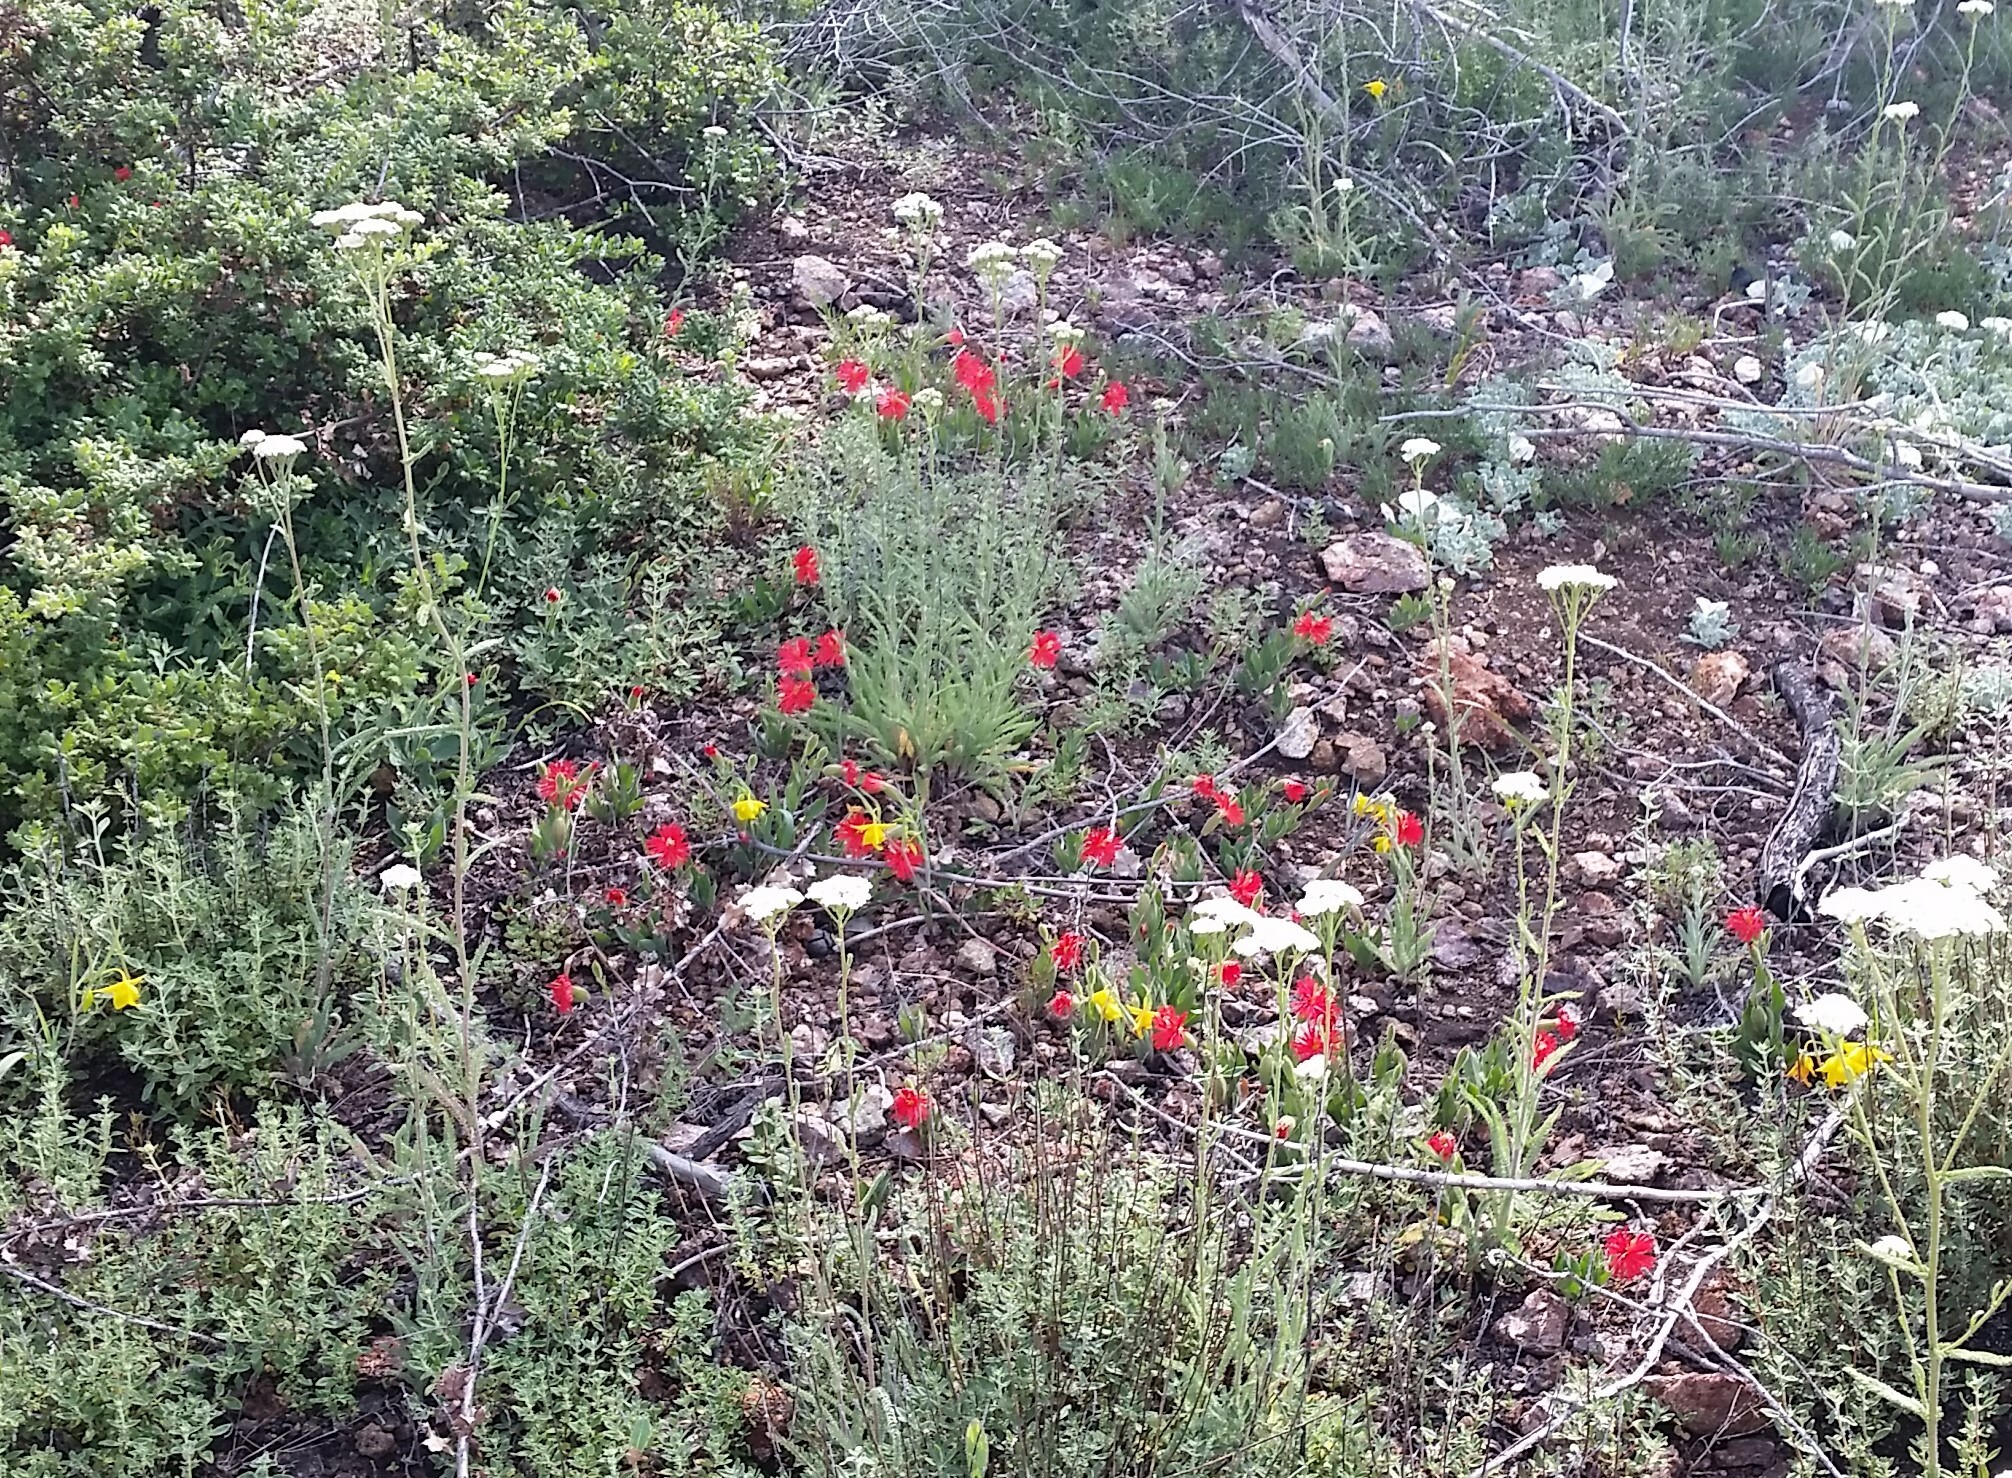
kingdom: Plantae
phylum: Tracheophyta
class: Magnoliopsida
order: Caryophyllales
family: Caryophyllaceae
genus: Silene
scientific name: Silene laciniata
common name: Indian-pink
